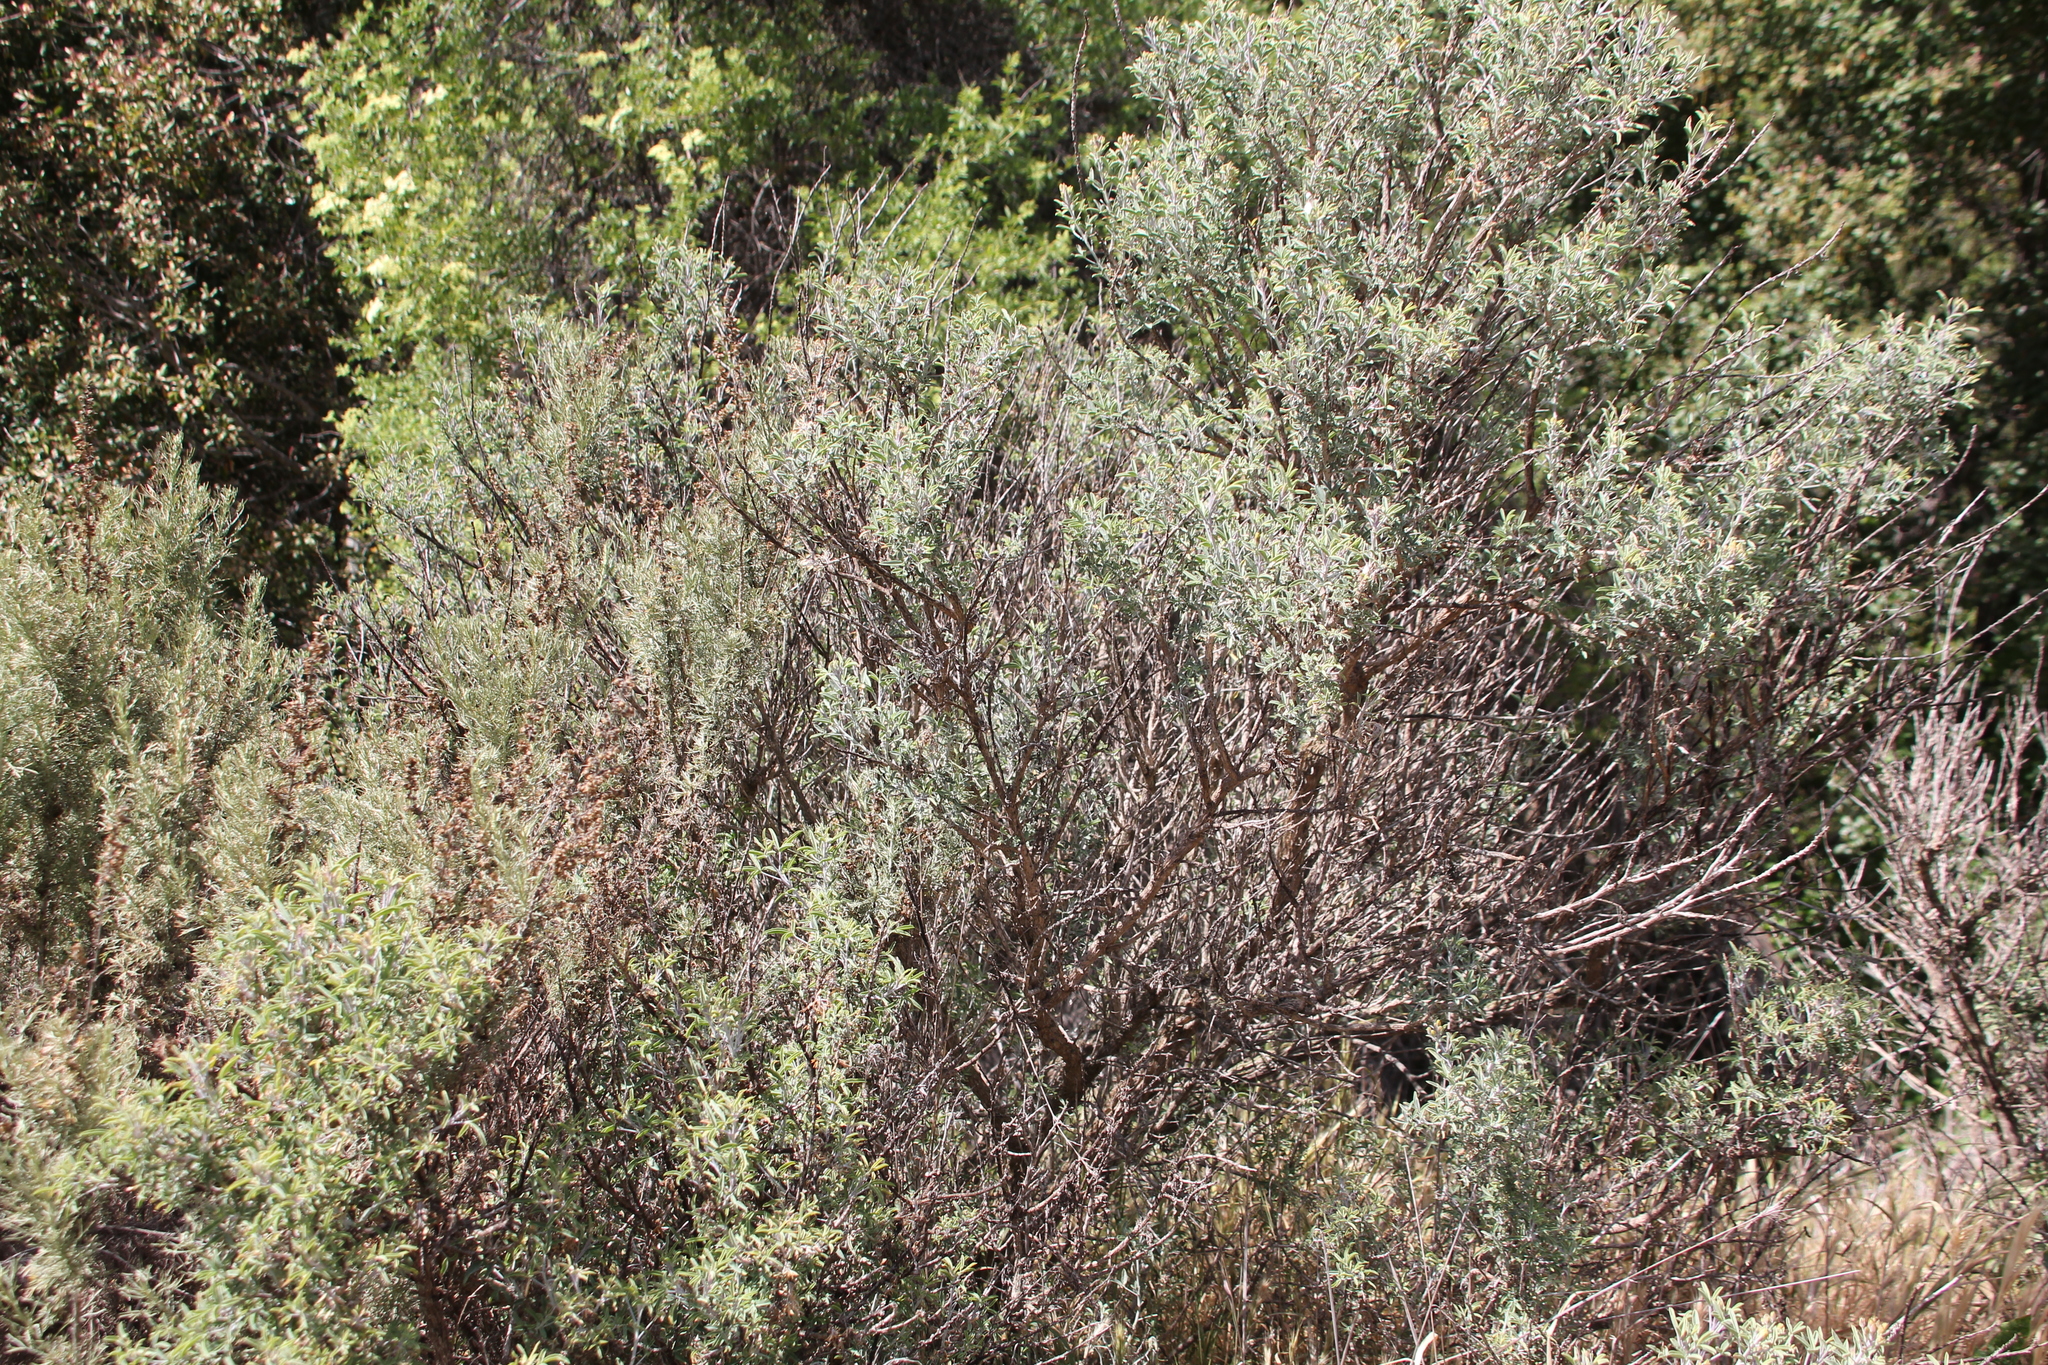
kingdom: Plantae
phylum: Tracheophyta
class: Magnoliopsida
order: Brassicales
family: Cleomaceae
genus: Cleomella
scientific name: Cleomella arborea
